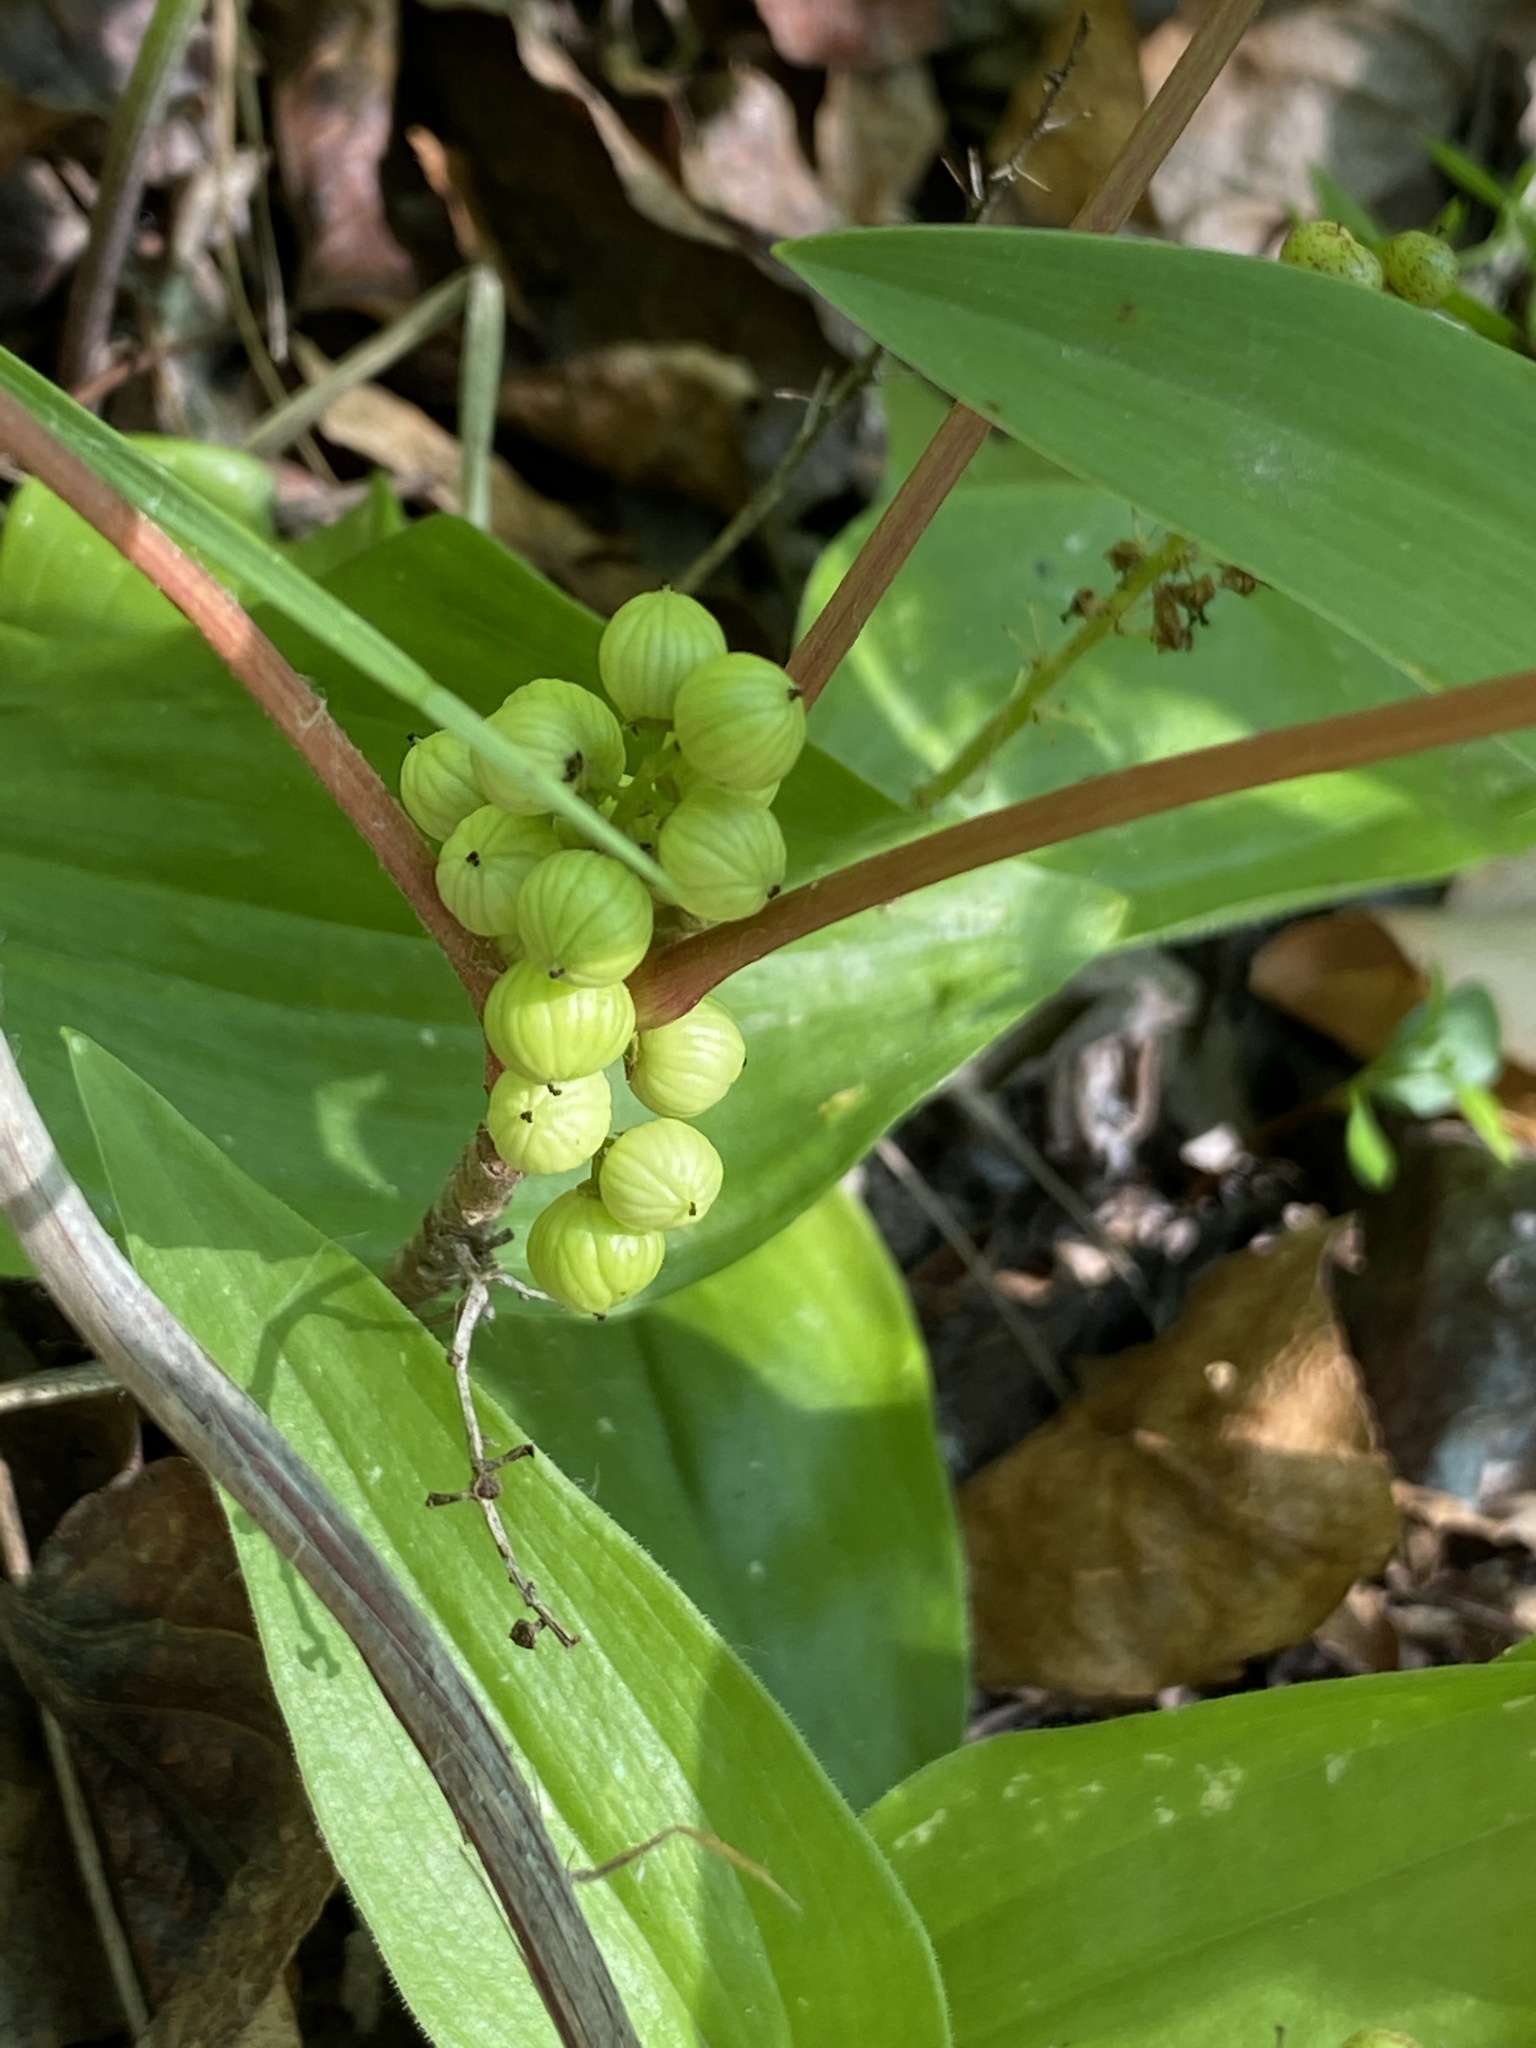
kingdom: Plantae
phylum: Tracheophyta
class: Magnoliopsida
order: Sapindales
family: Anacardiaceae
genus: Toxicodendron
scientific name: Toxicodendron rydbergii
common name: Rydberg's poison-ivy
